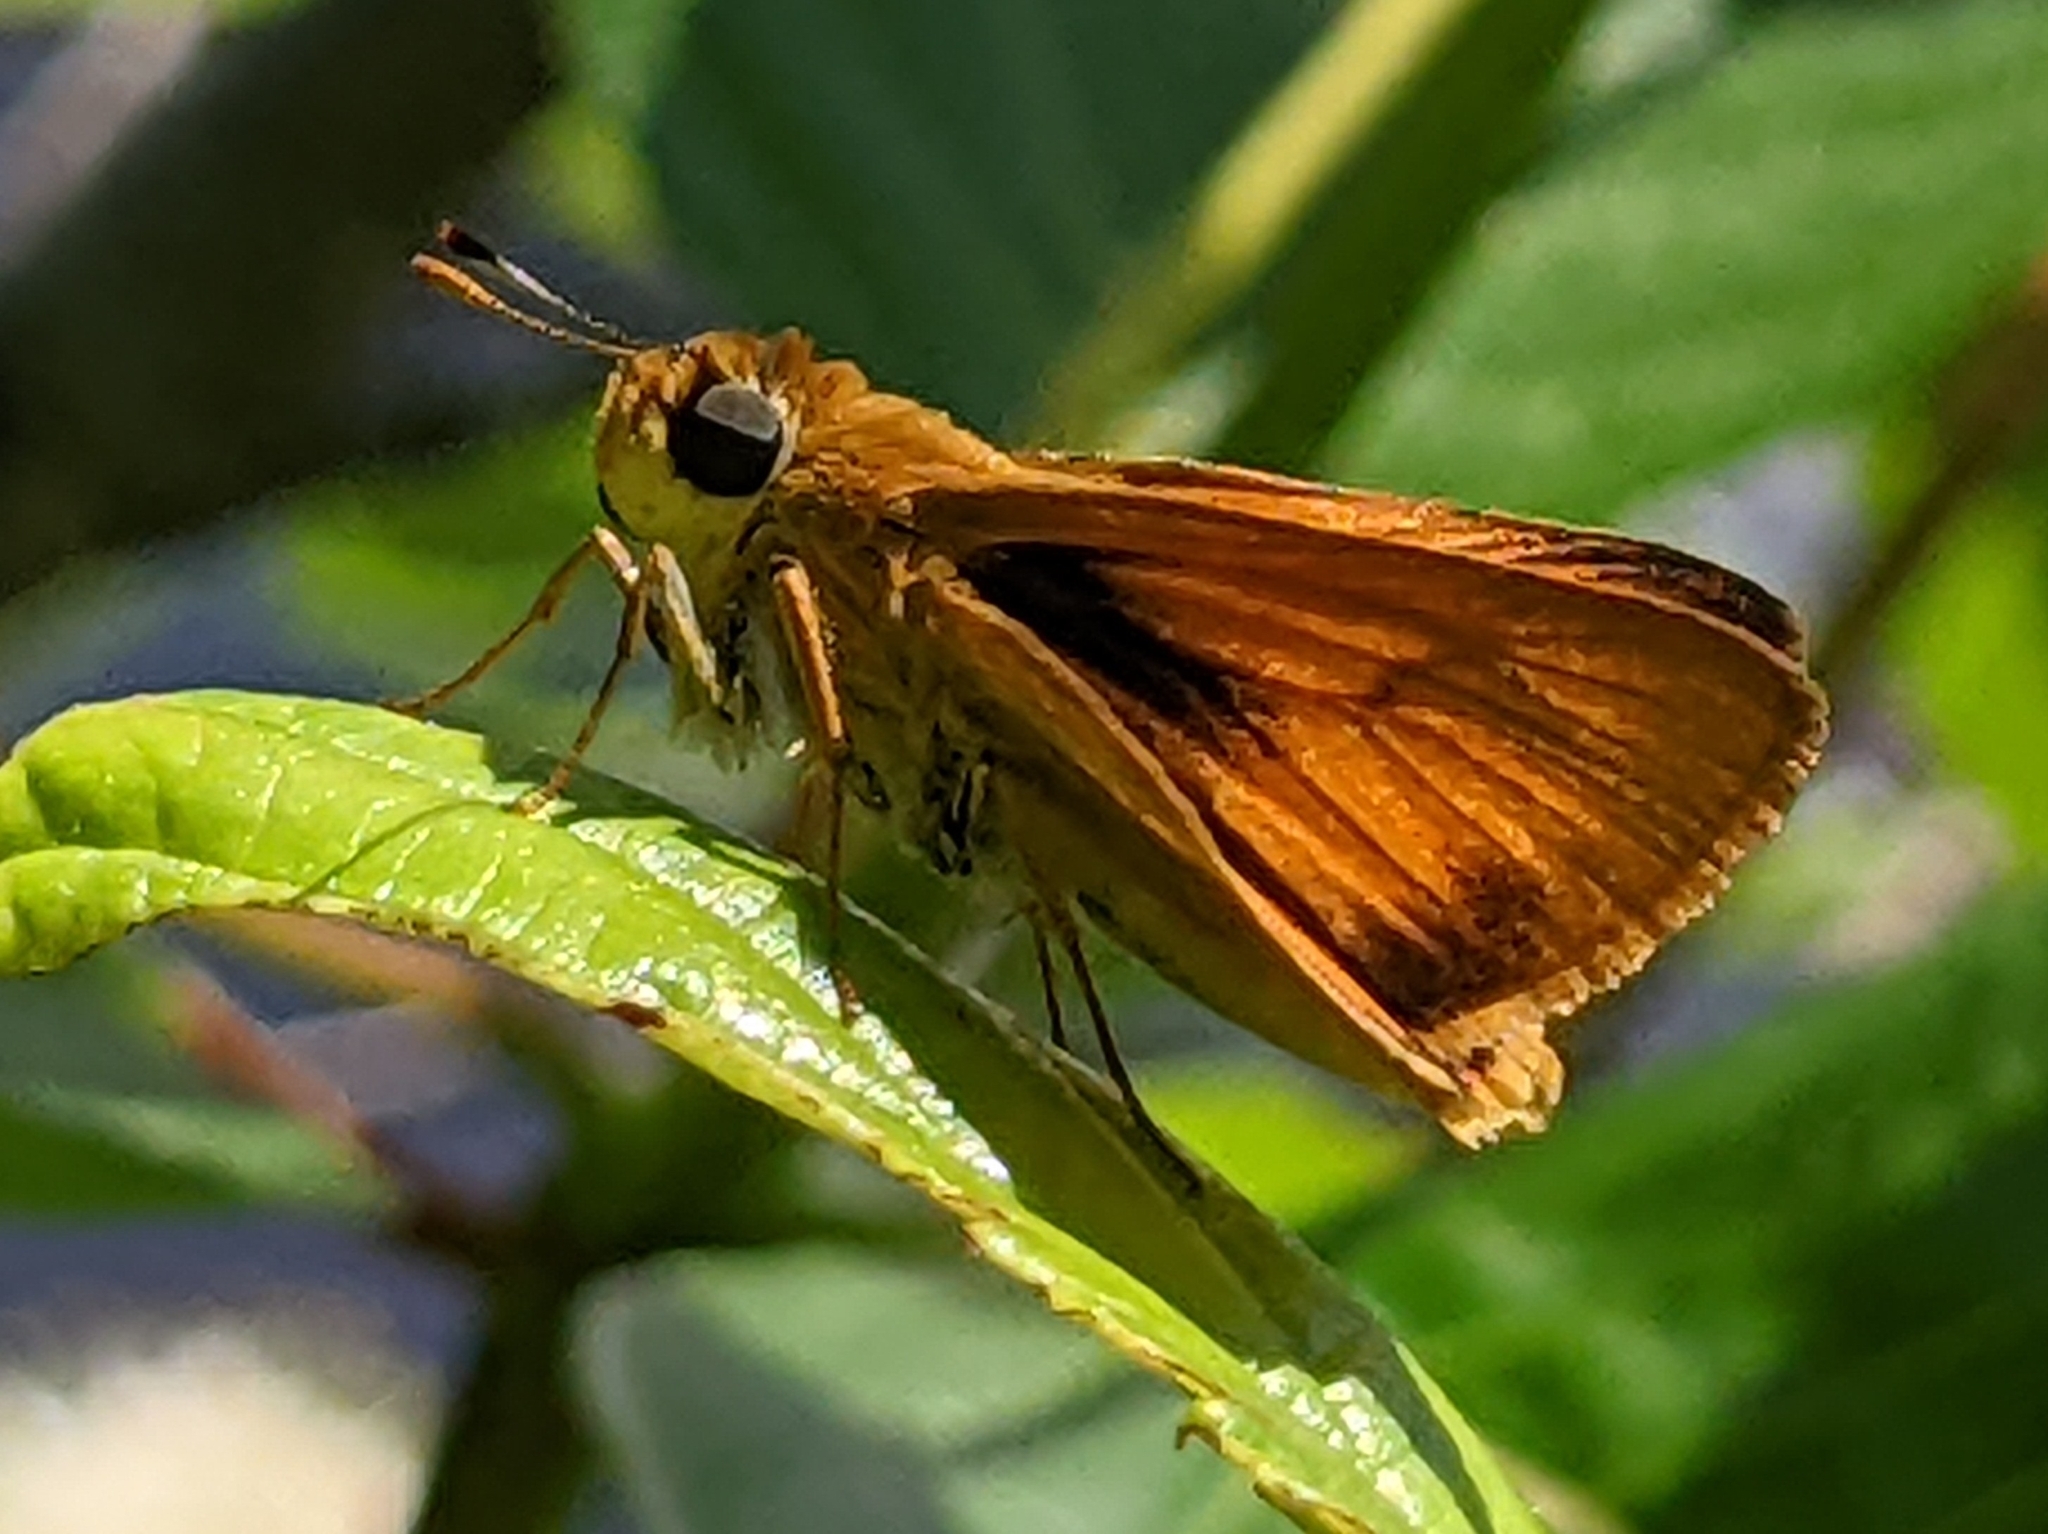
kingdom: Animalia
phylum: Arthropoda
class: Insecta
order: Lepidoptera
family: Hesperiidae
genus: Atrytone
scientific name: Atrytone delaware
